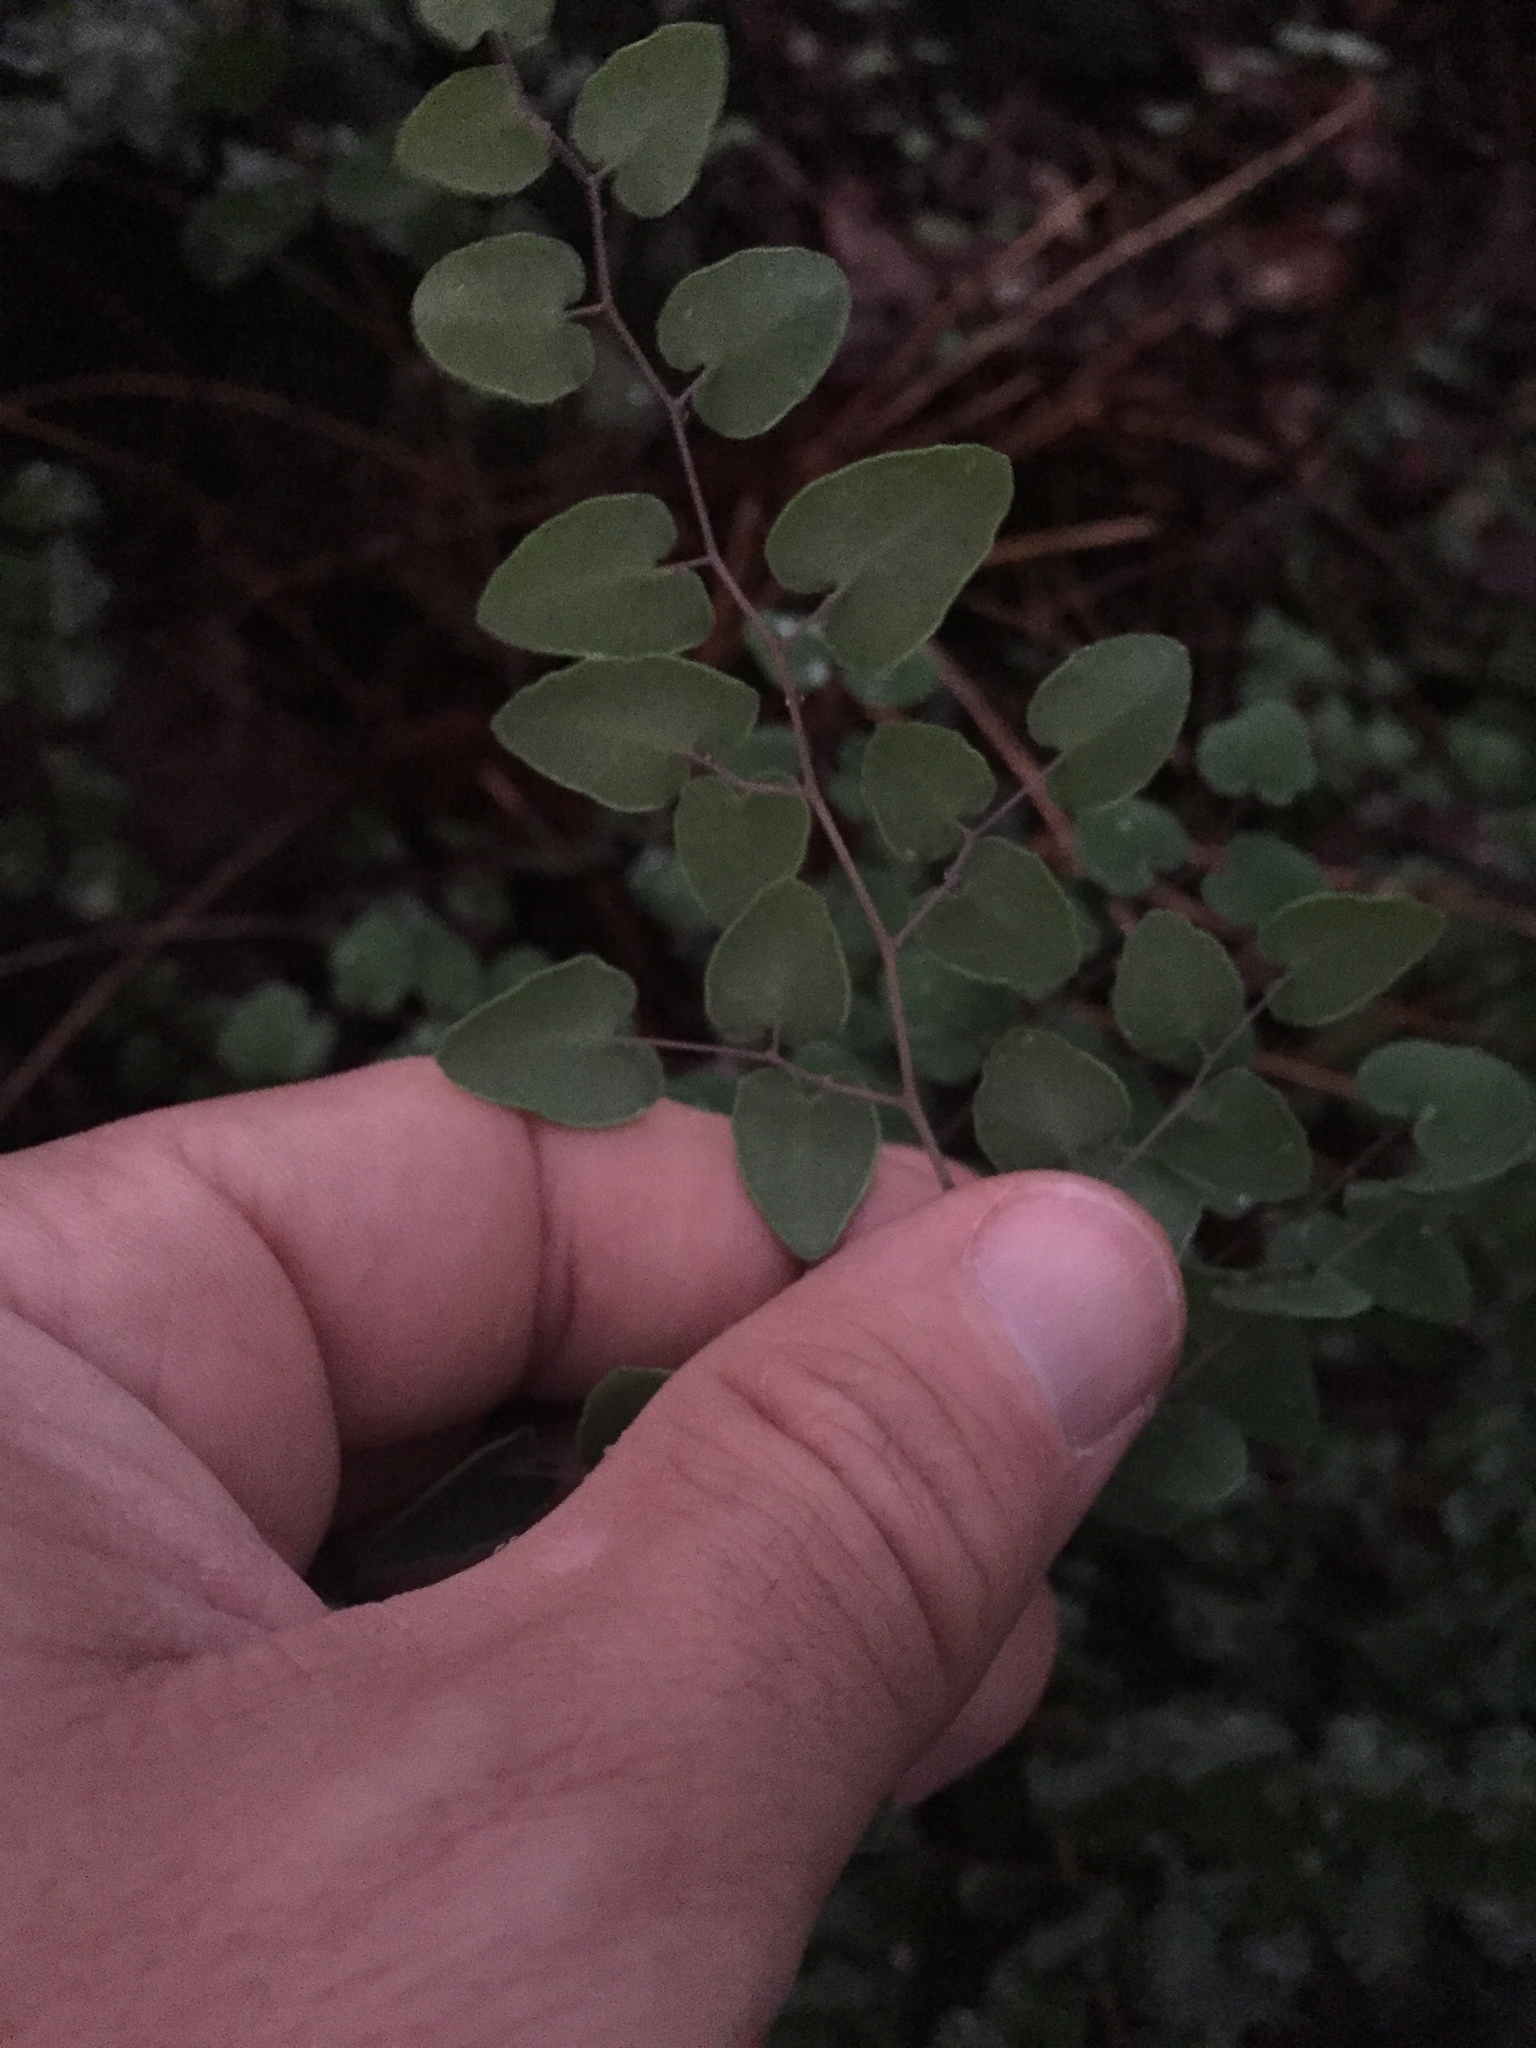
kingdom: Plantae
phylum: Tracheophyta
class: Polypodiopsida
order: Polypodiales
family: Pteridaceae
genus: Pellaea
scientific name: Pellaea cordifolia
